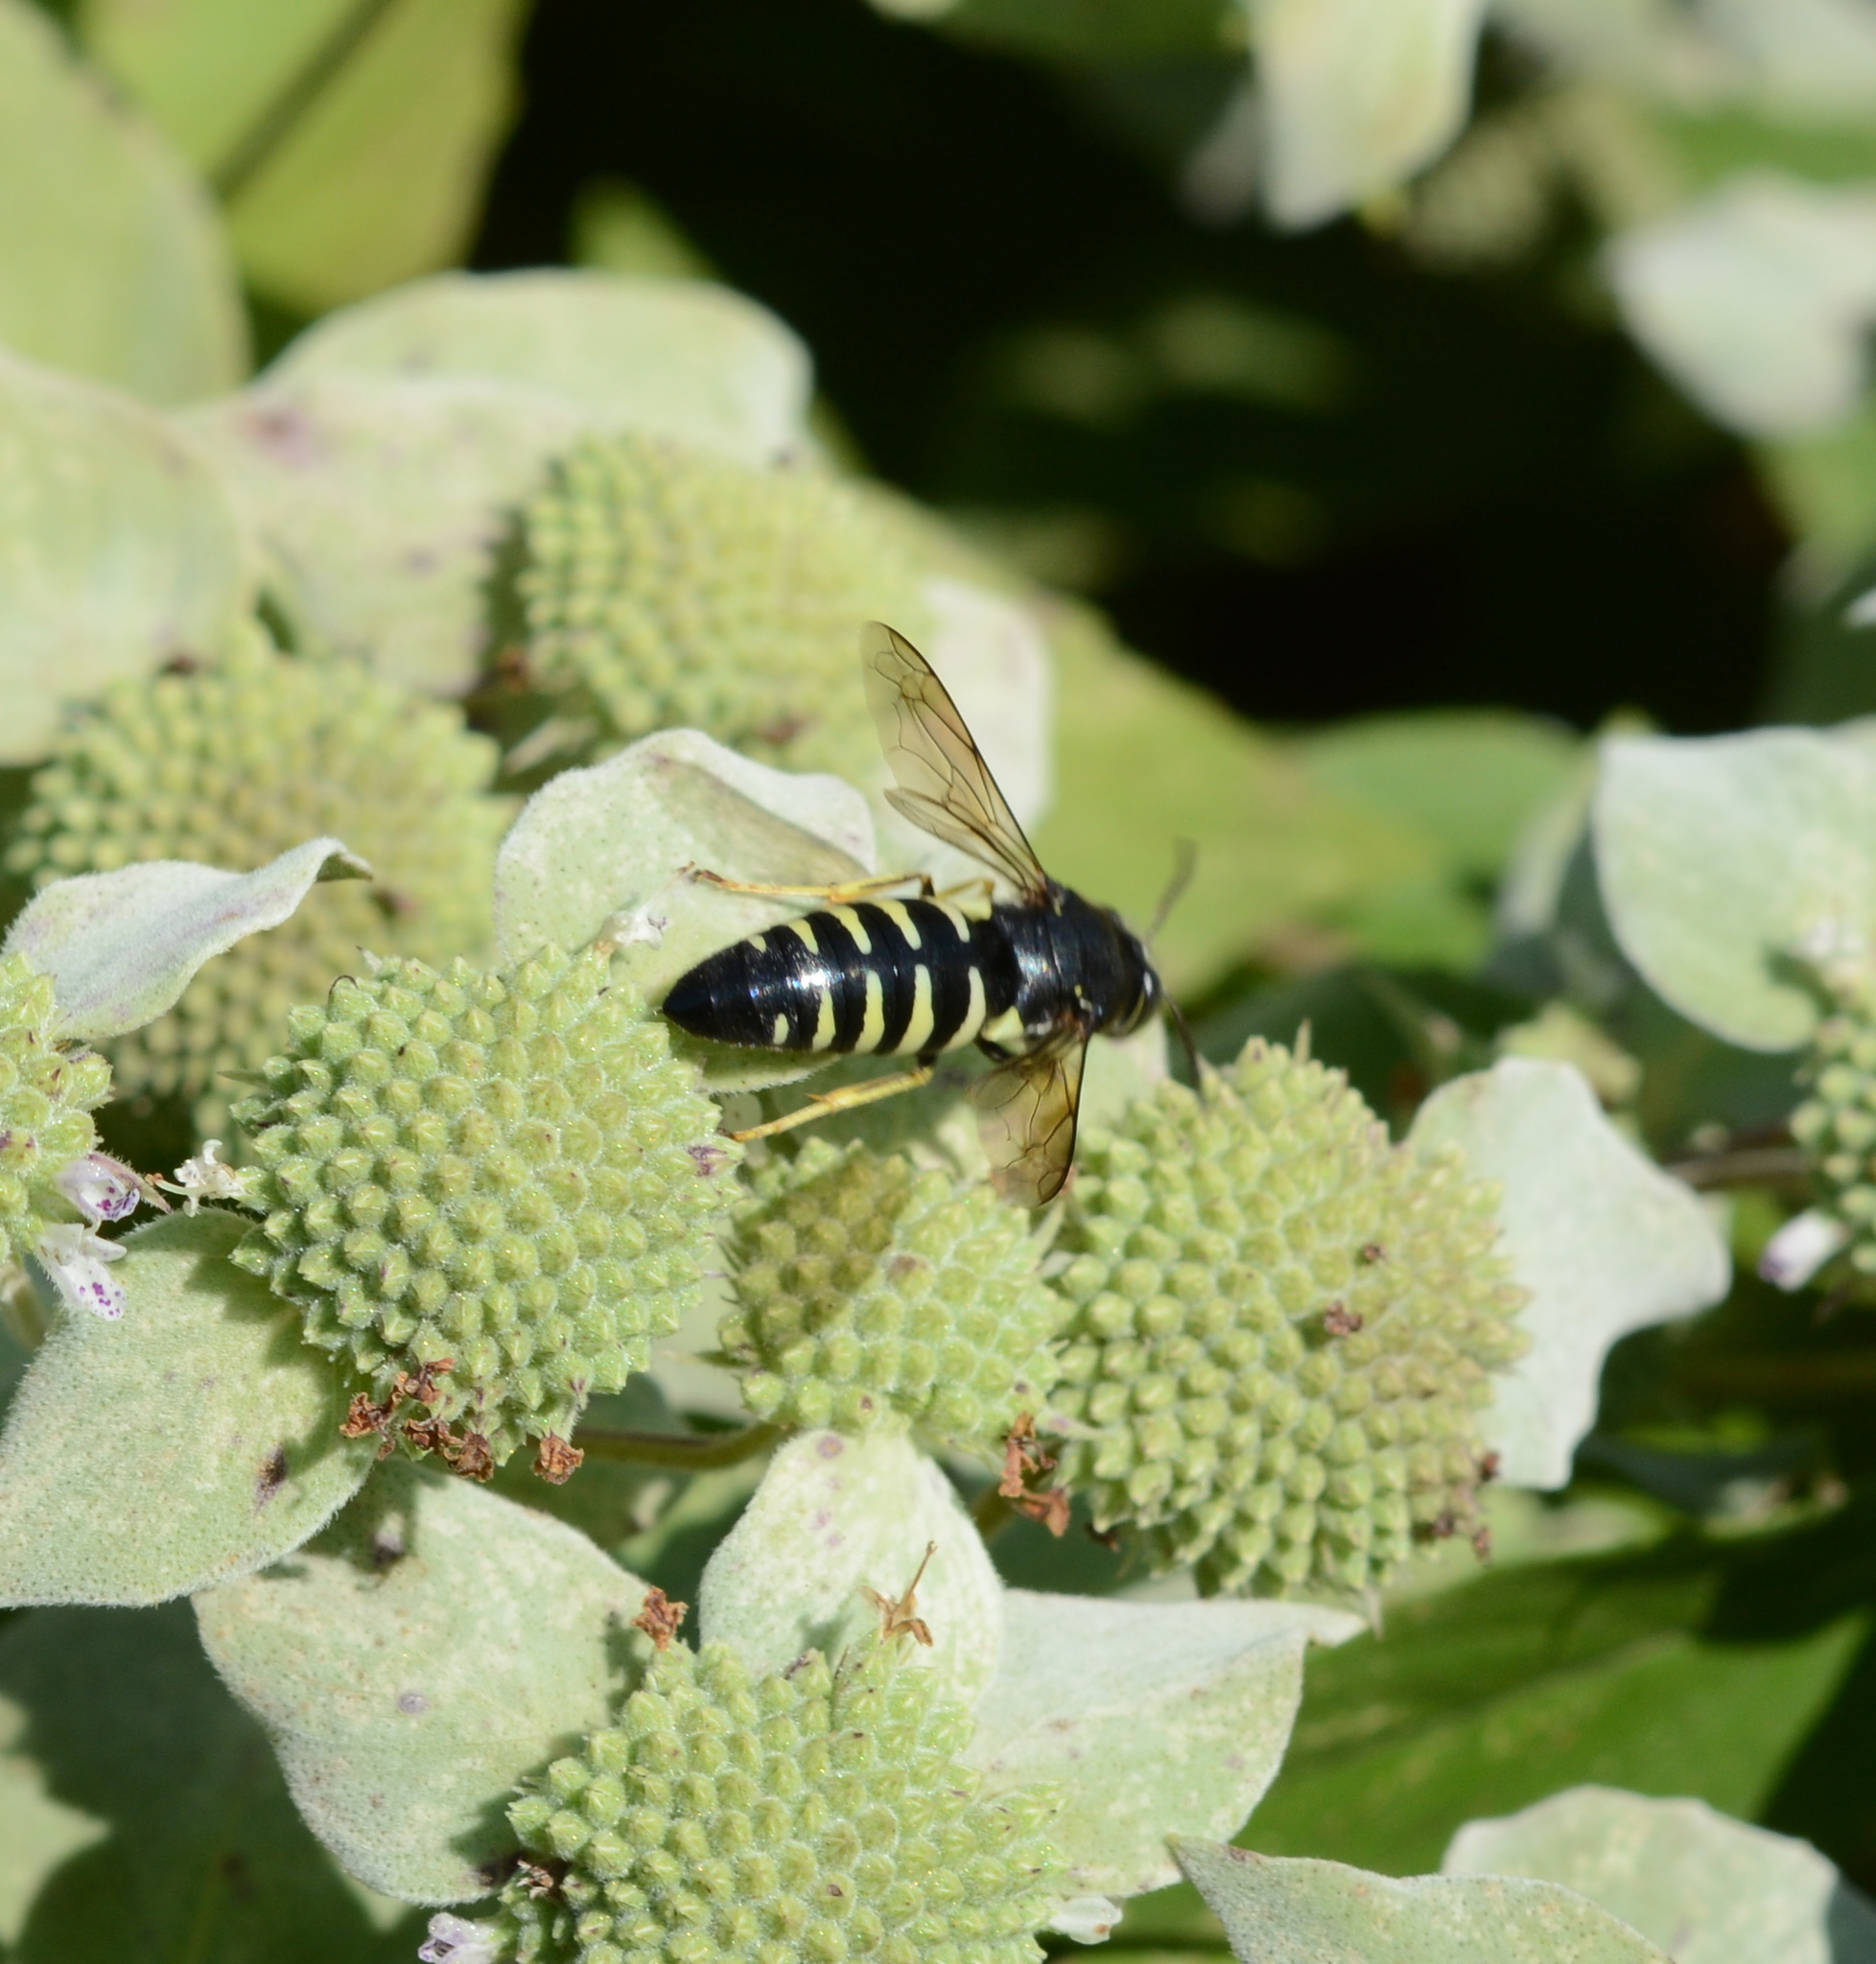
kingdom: Animalia
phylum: Arthropoda
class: Insecta
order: Hymenoptera
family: Crabronidae
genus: Bicyrtes
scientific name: Bicyrtes quadrifasciatus
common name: Four-banded stink bug hunter wasp
